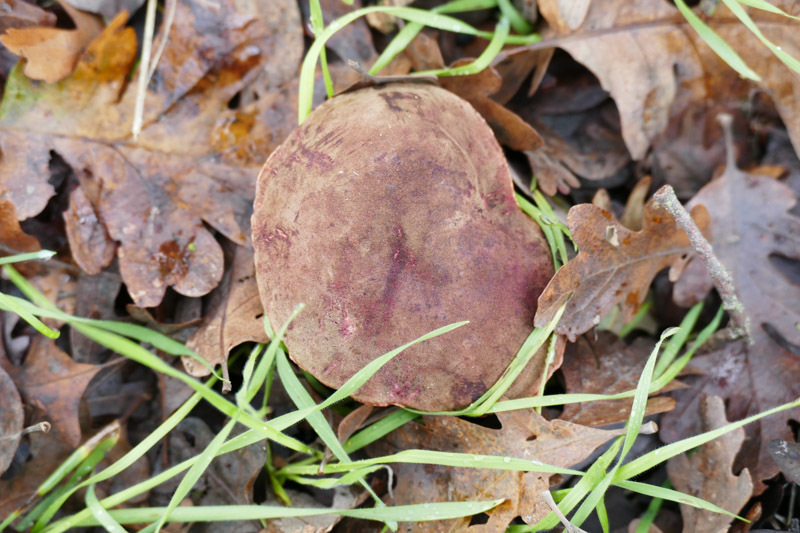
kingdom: Fungi
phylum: Basidiomycota
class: Agaricomycetes
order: Boletales
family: Boletaceae
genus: Xerocomellus
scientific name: Xerocomellus dryophilus
